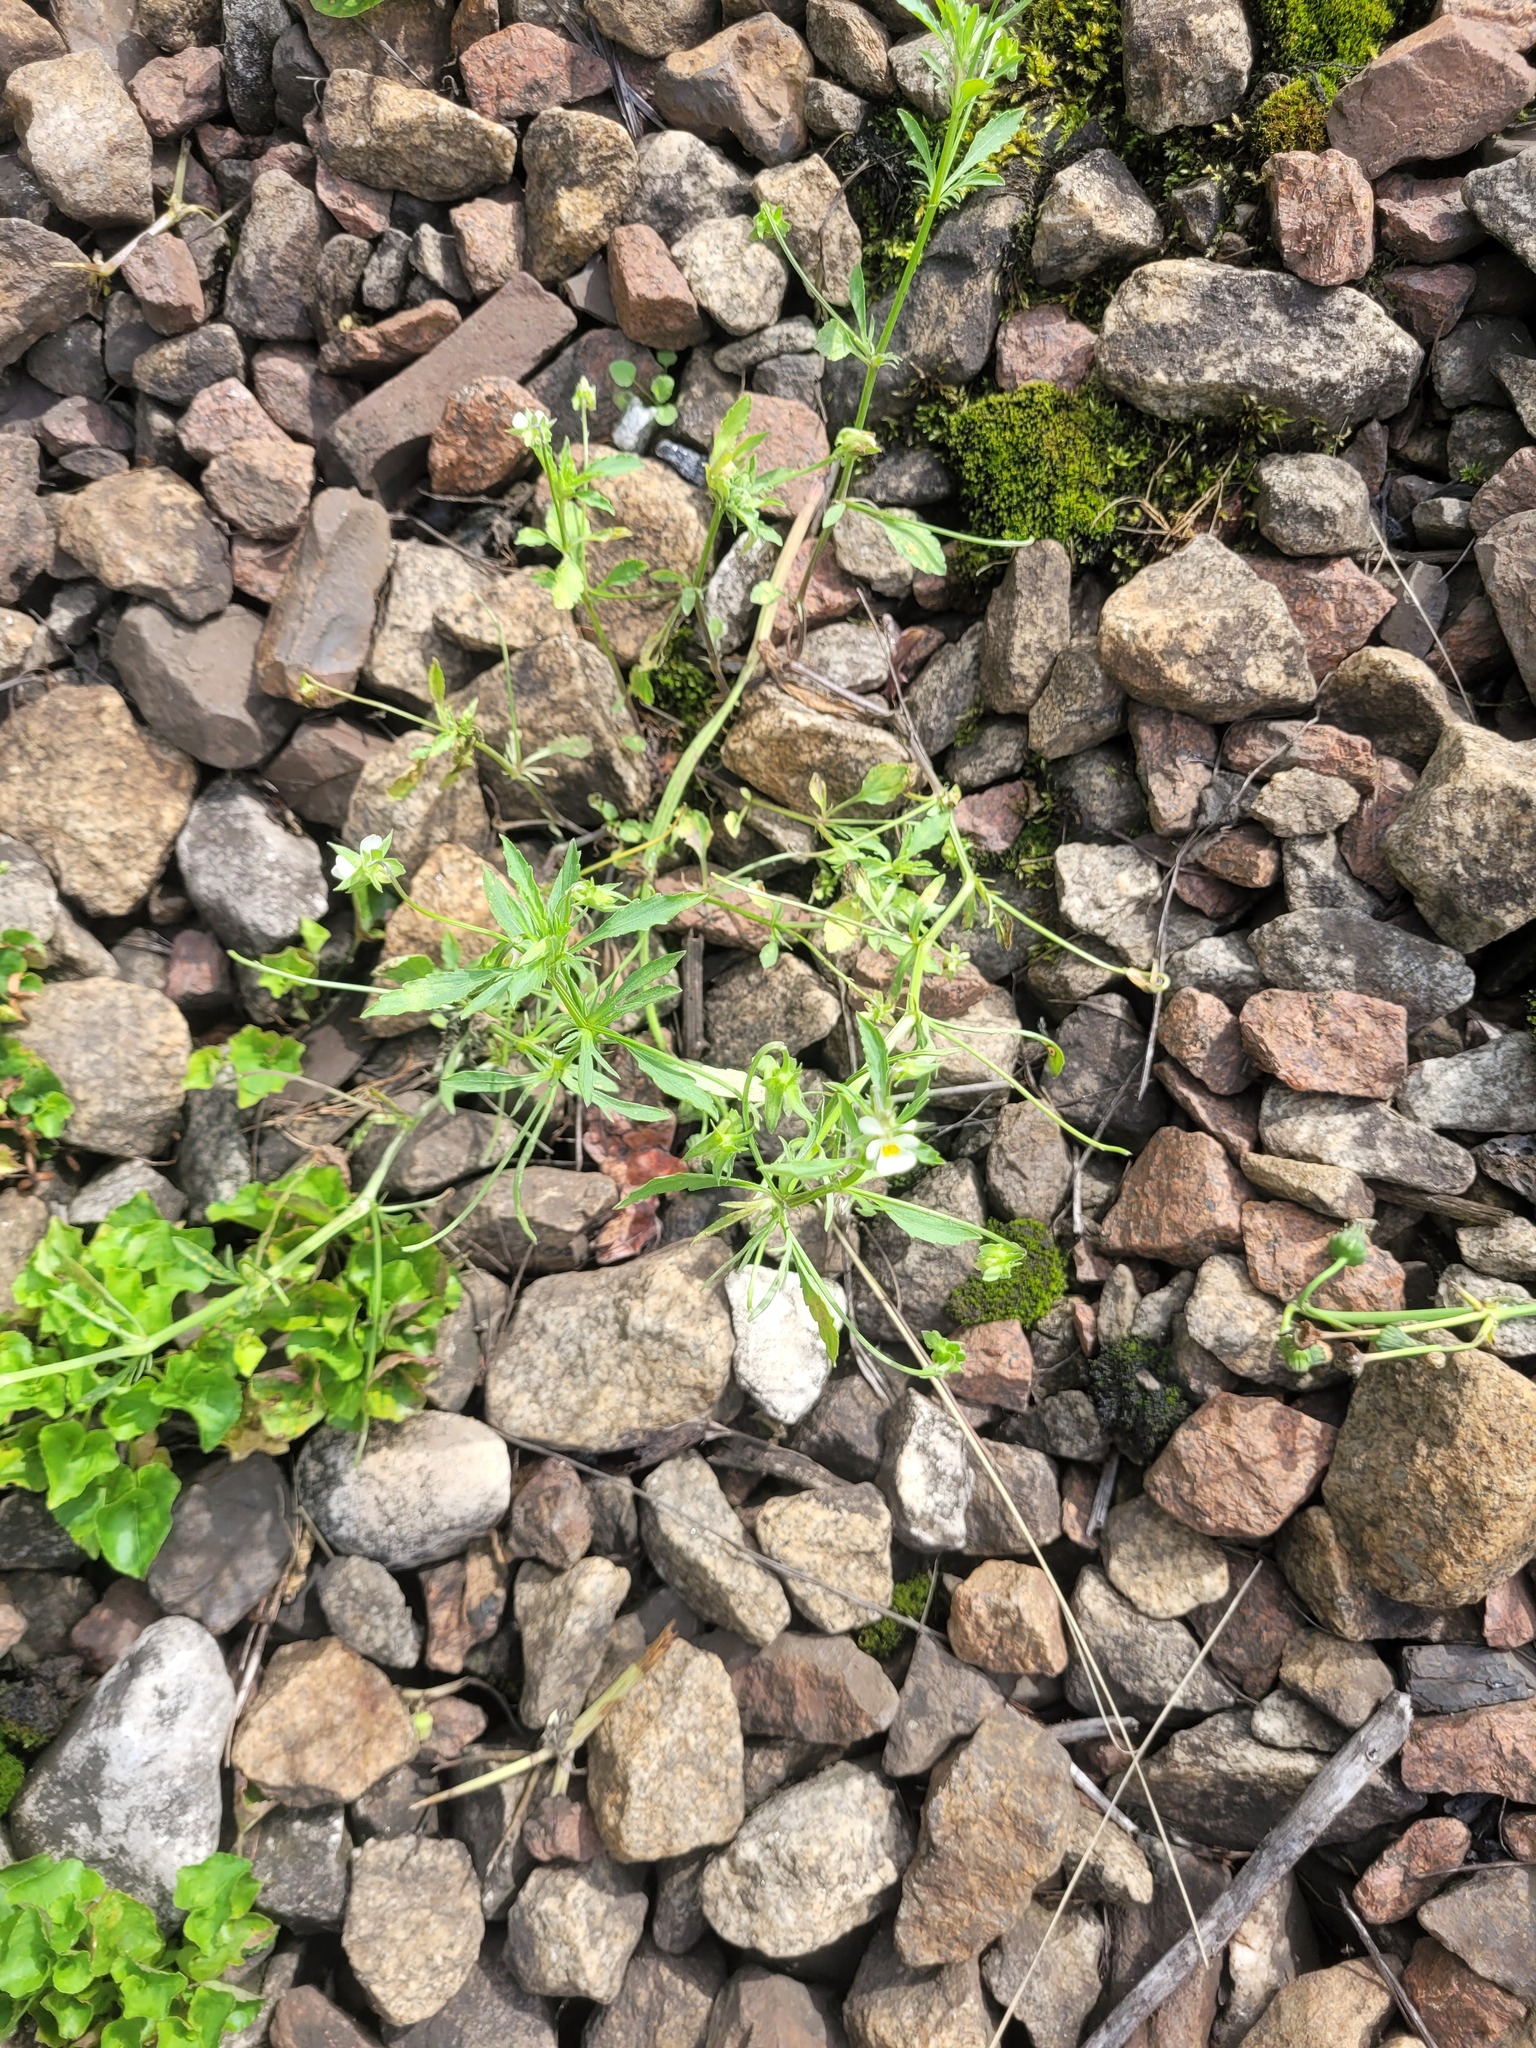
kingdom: Plantae
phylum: Tracheophyta
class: Magnoliopsida
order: Malpighiales
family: Violaceae
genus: Viola
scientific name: Viola arvensis
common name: Field pansy
